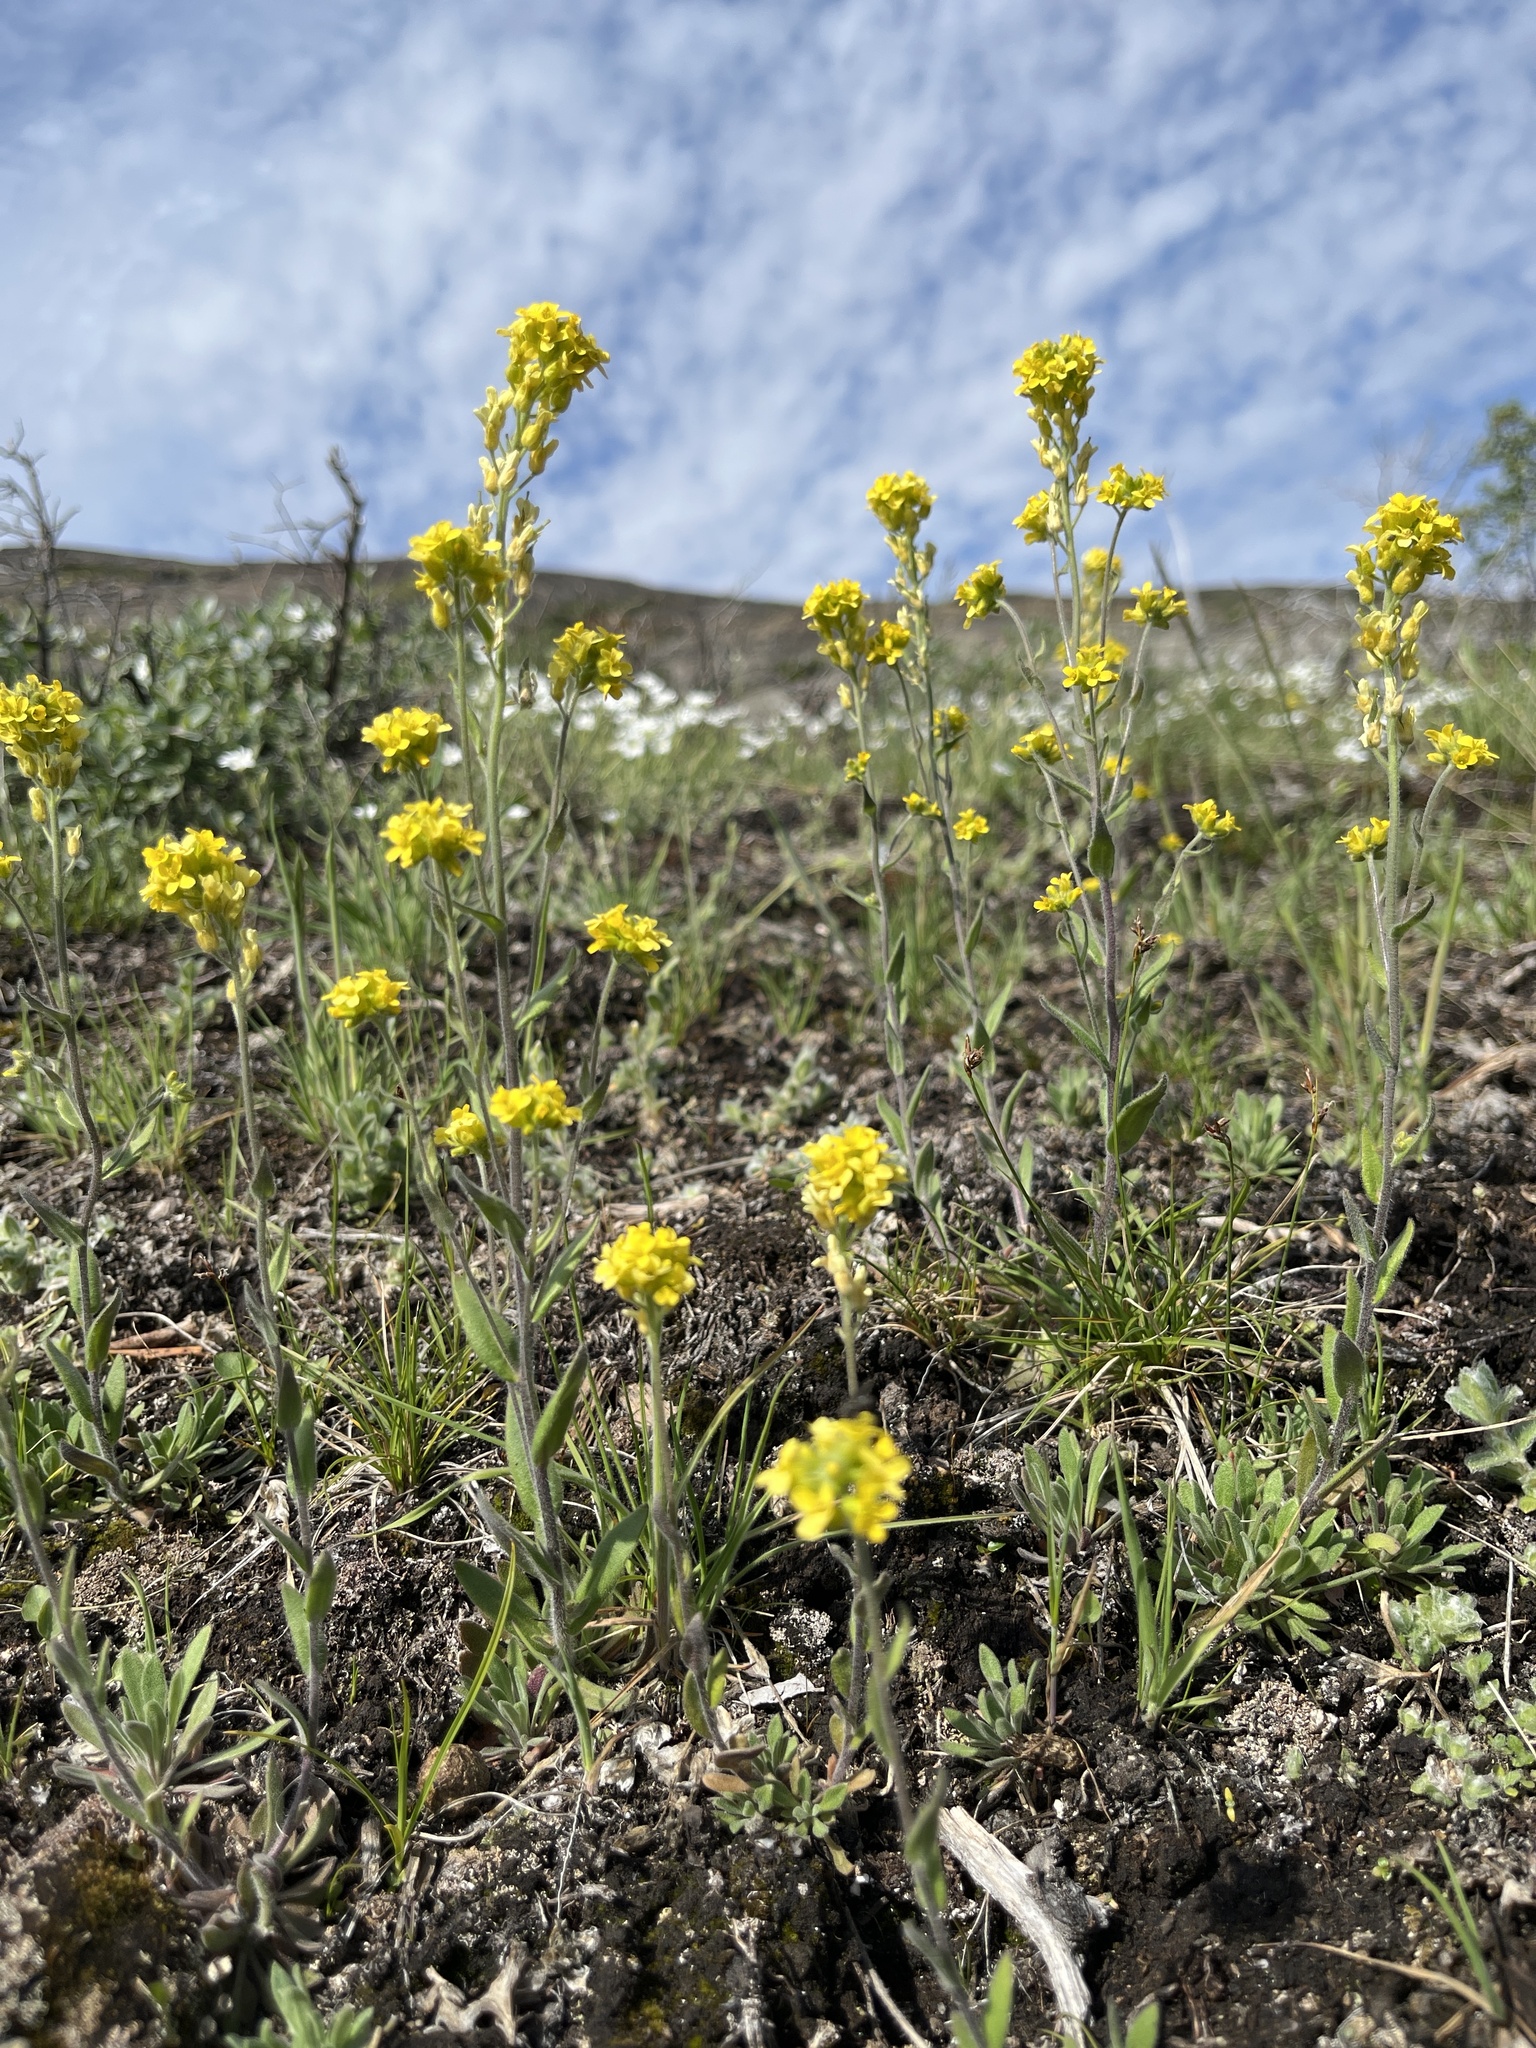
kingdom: Plantae
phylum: Tracheophyta
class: Magnoliopsida
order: Brassicales
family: Brassicaceae
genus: Draba
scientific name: Draba aurea
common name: Golden draba
